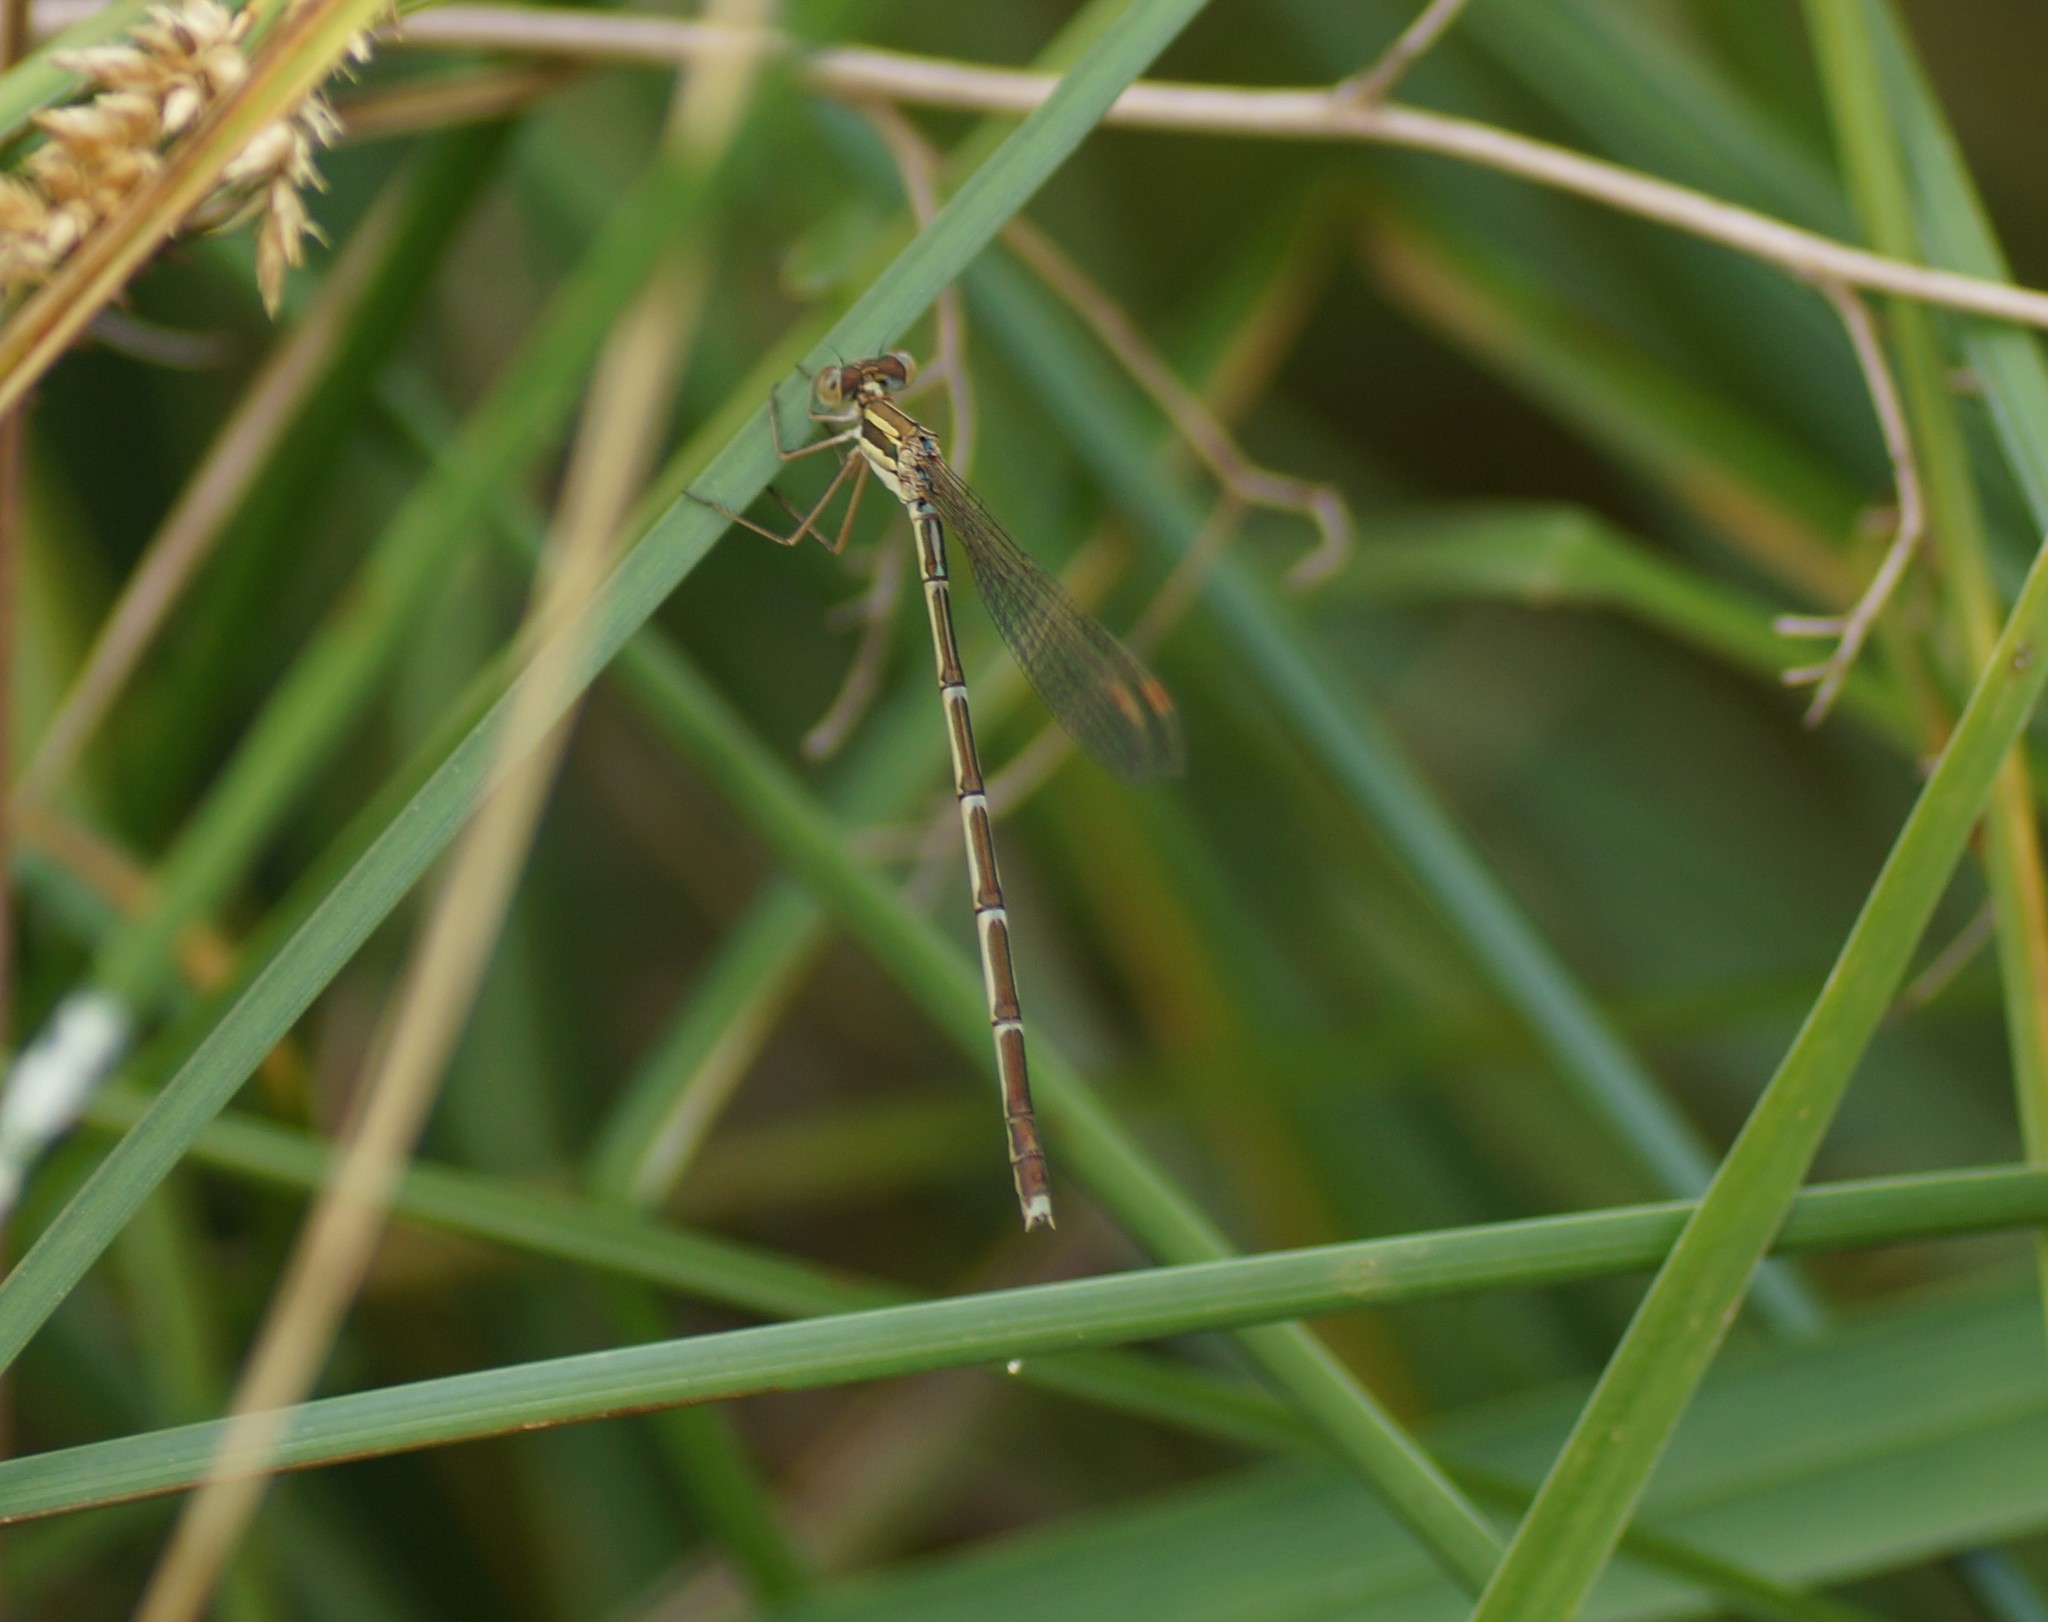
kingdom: Animalia
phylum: Arthropoda
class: Insecta
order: Odonata
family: Lestidae
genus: Austrolestes
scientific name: Austrolestes analis
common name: Slender ringtail
